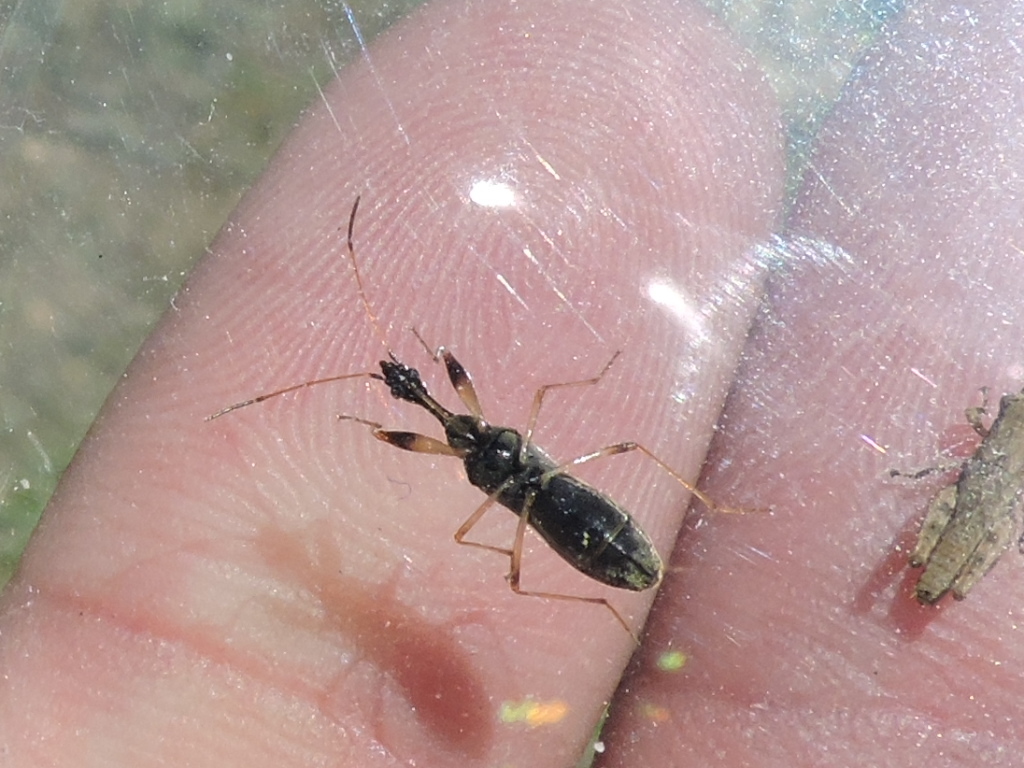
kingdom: Animalia
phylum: Arthropoda
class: Insecta
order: Hemiptera
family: Rhyparochromidae
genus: Myodocha
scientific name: Myodocha serripes
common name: Long-necked seed bug
